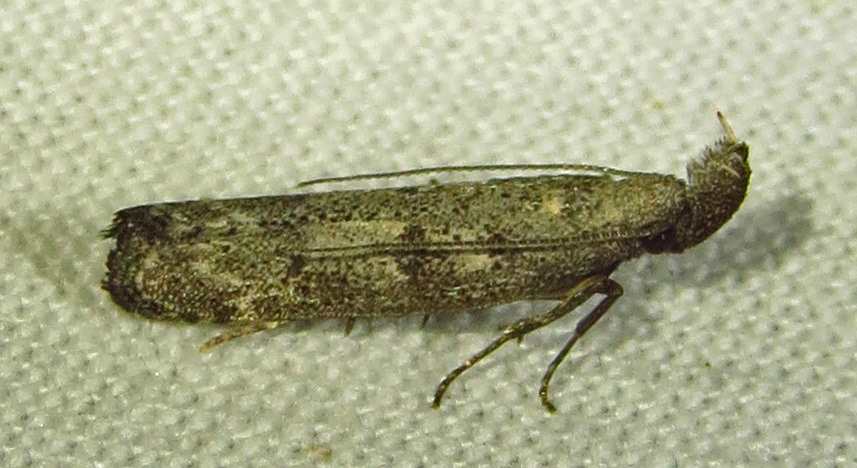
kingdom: Animalia
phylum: Arthropoda
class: Insecta
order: Lepidoptera
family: Gelechiidae
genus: Dichomeris
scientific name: Dichomeris inversella
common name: Inverse dichomeris moth
